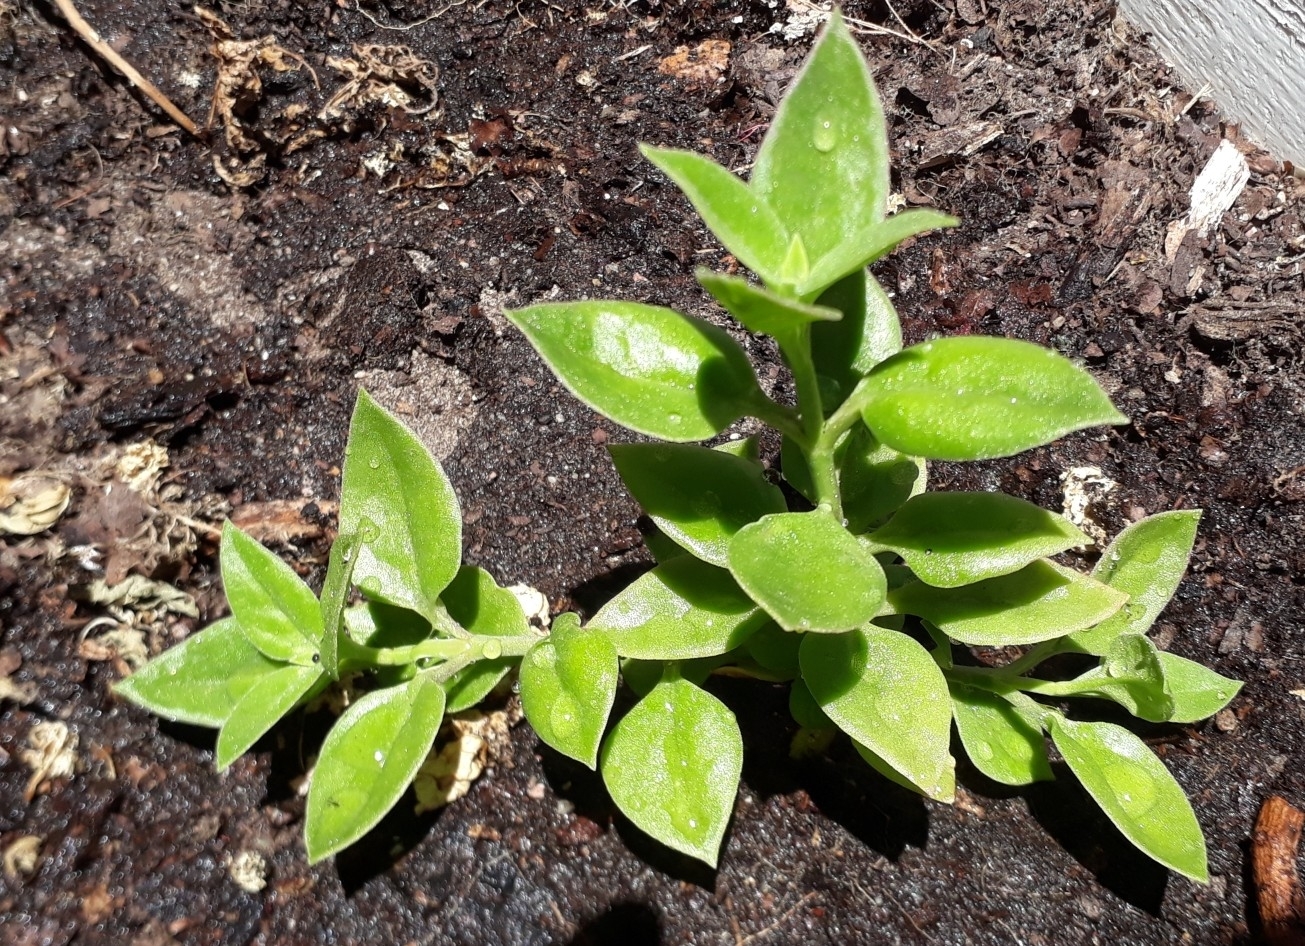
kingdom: Plantae
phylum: Tracheophyta
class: Magnoliopsida
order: Caryophyllales
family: Aizoaceae
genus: Mesembryanthemum
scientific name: Mesembryanthemum cordifolium
